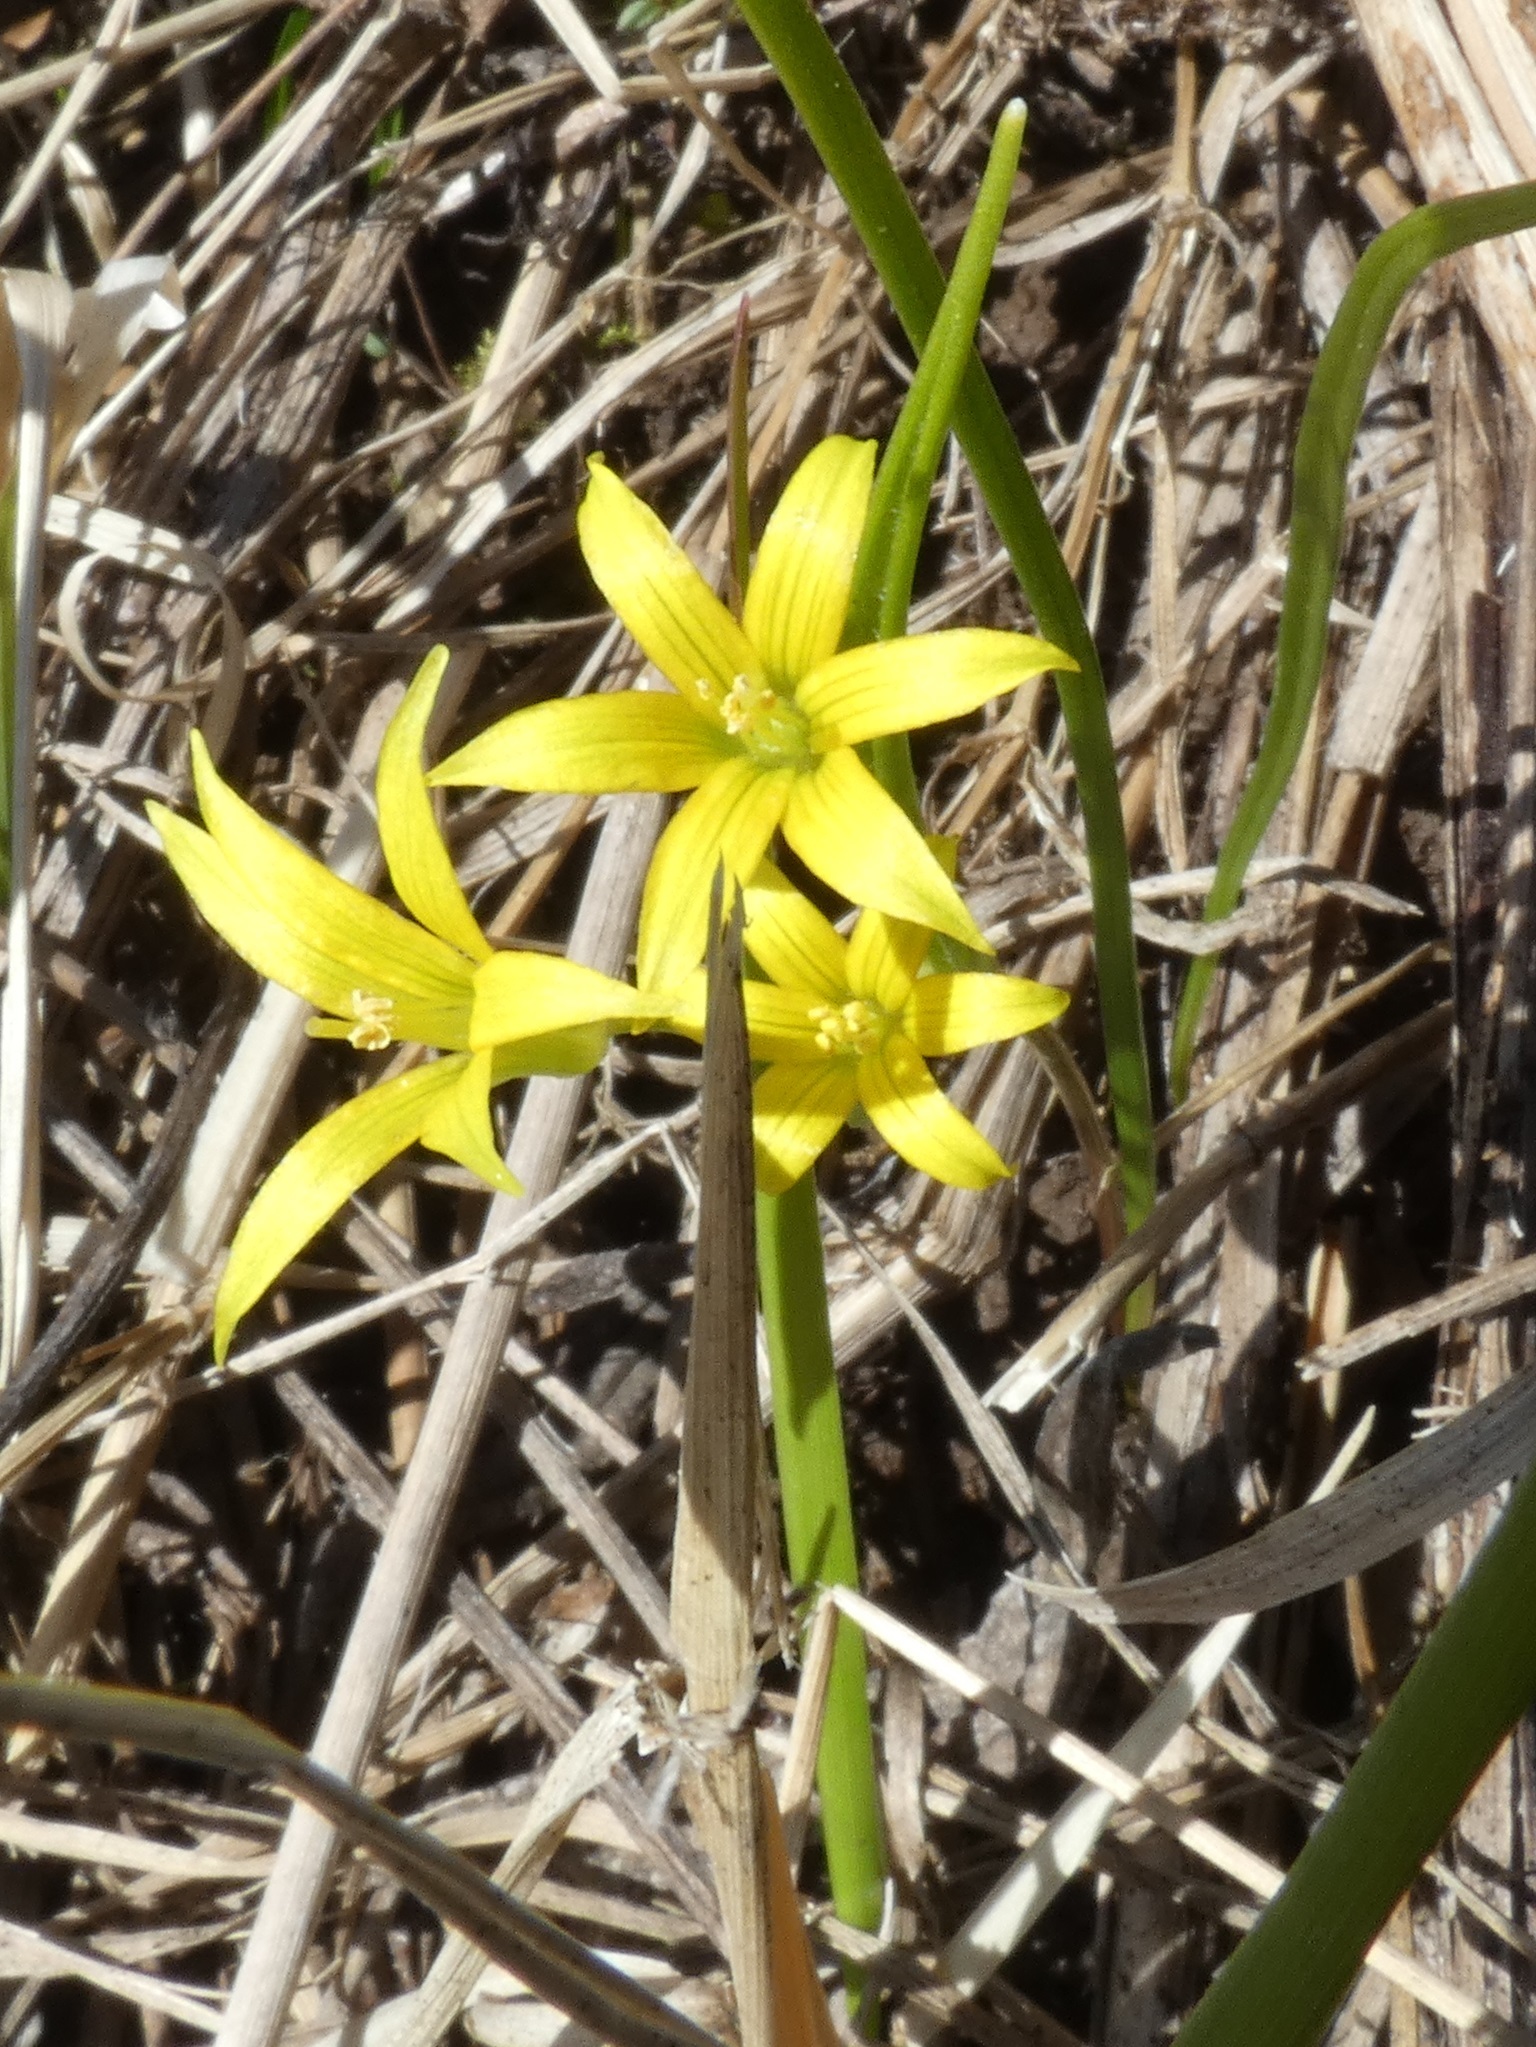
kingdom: Plantae
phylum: Tracheophyta
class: Liliopsida
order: Liliales
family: Liliaceae
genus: Gagea
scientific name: Gagea minima
